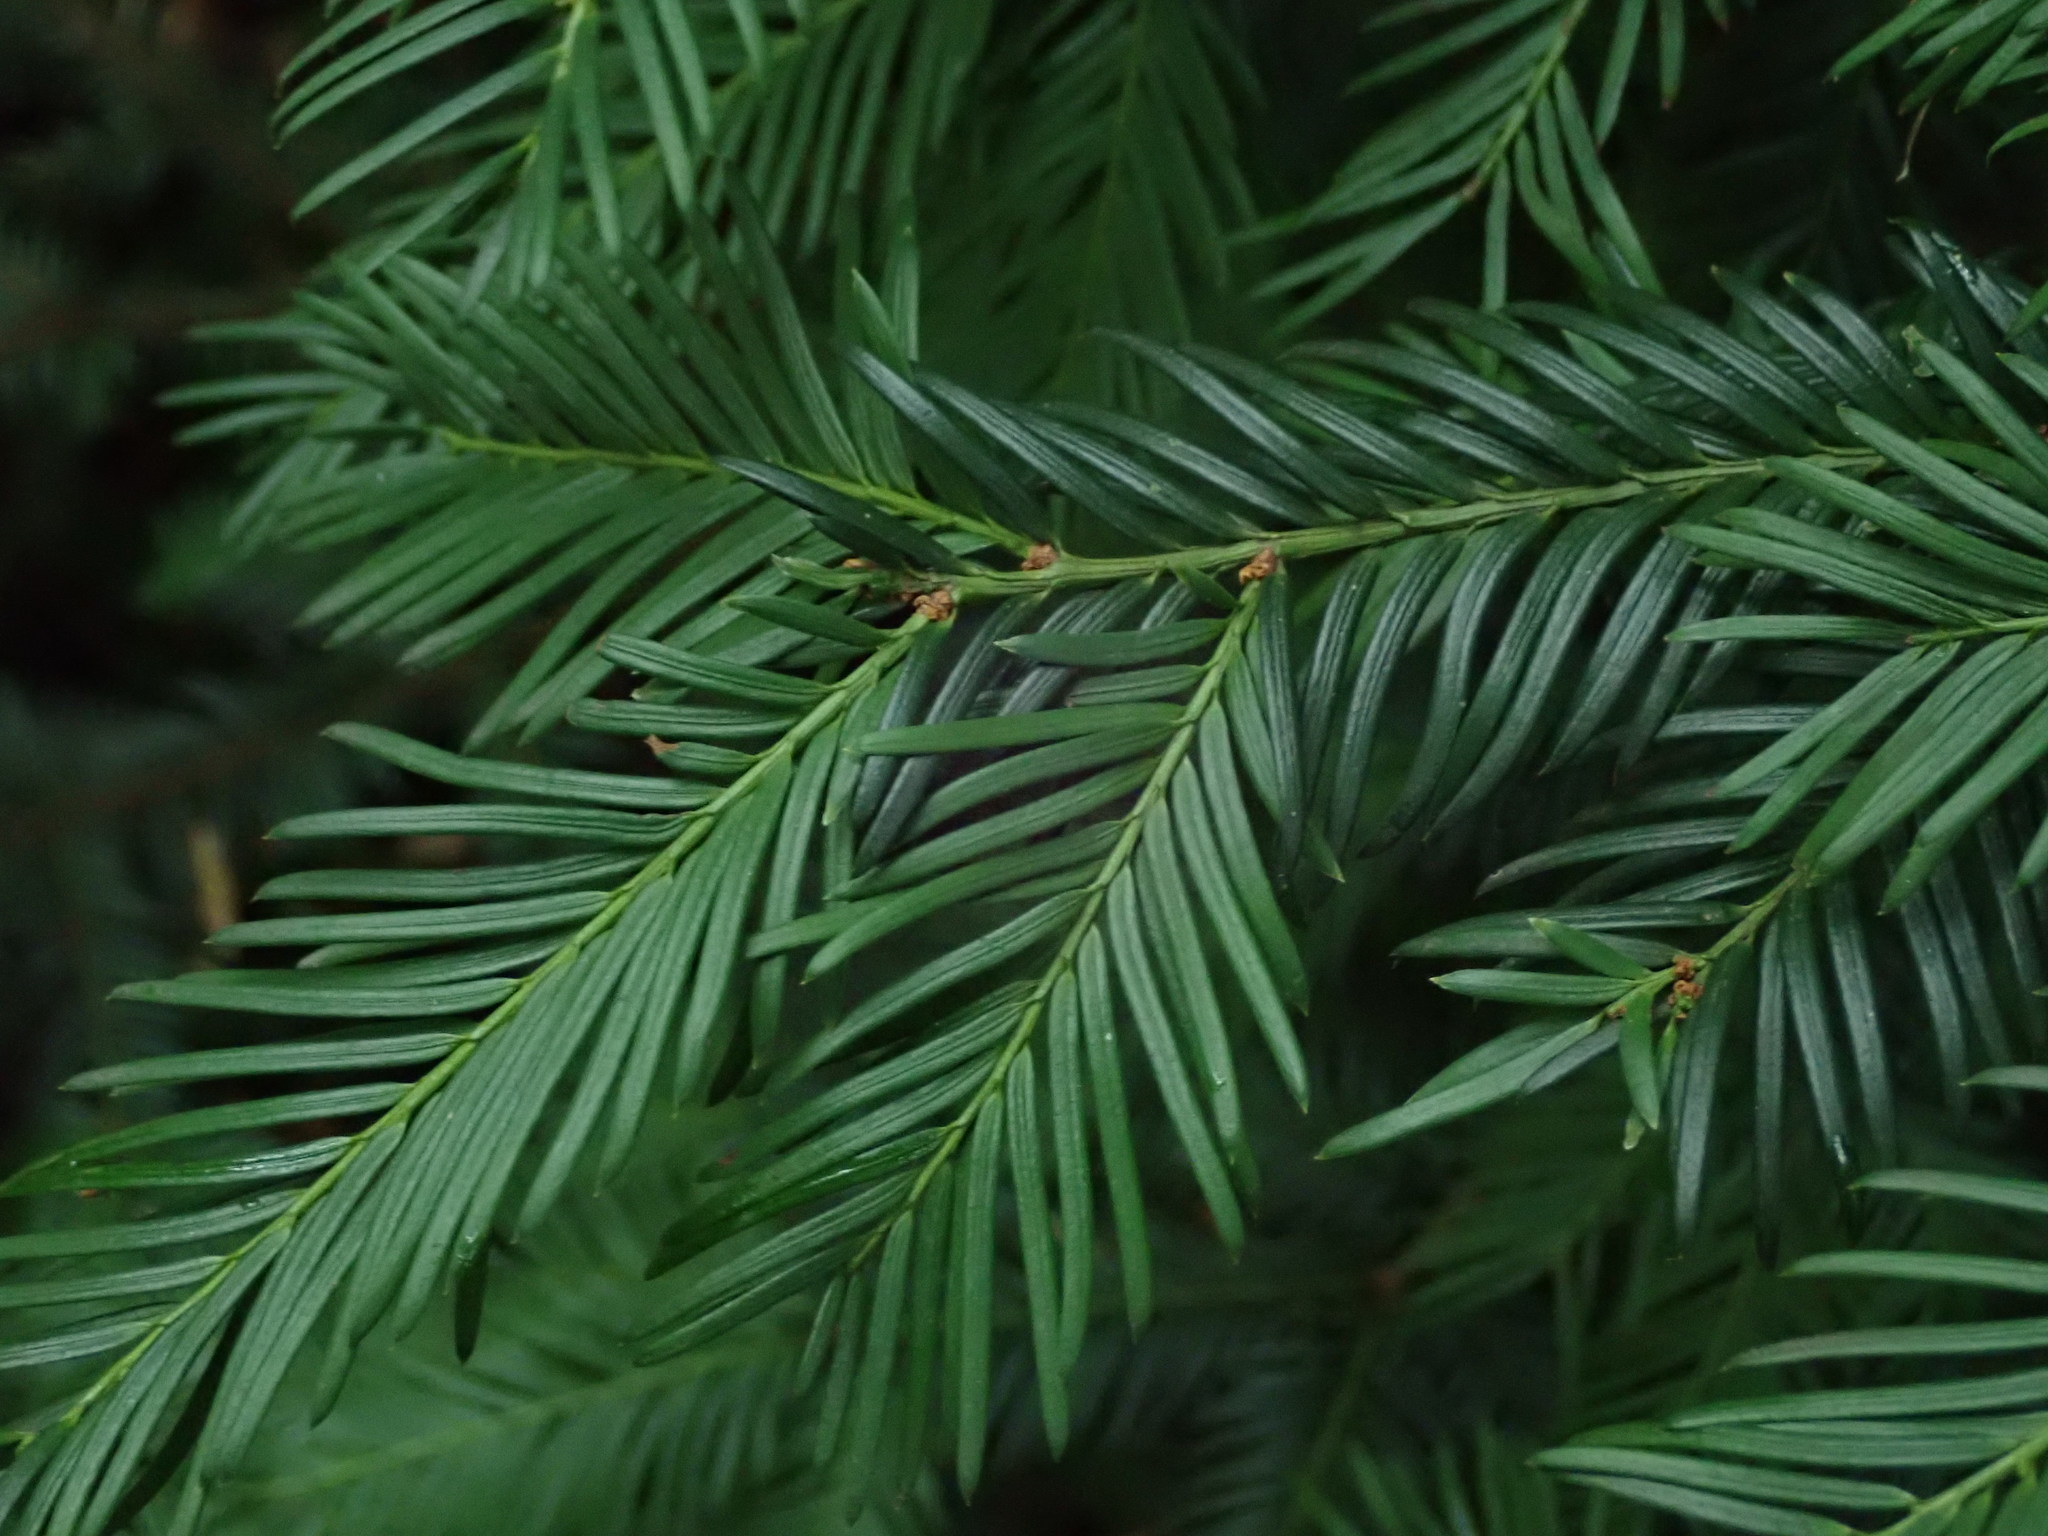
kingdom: Plantae
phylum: Tracheophyta
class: Pinopsida
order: Pinales
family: Taxaceae
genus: Taxus
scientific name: Taxus baccata
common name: Yew
